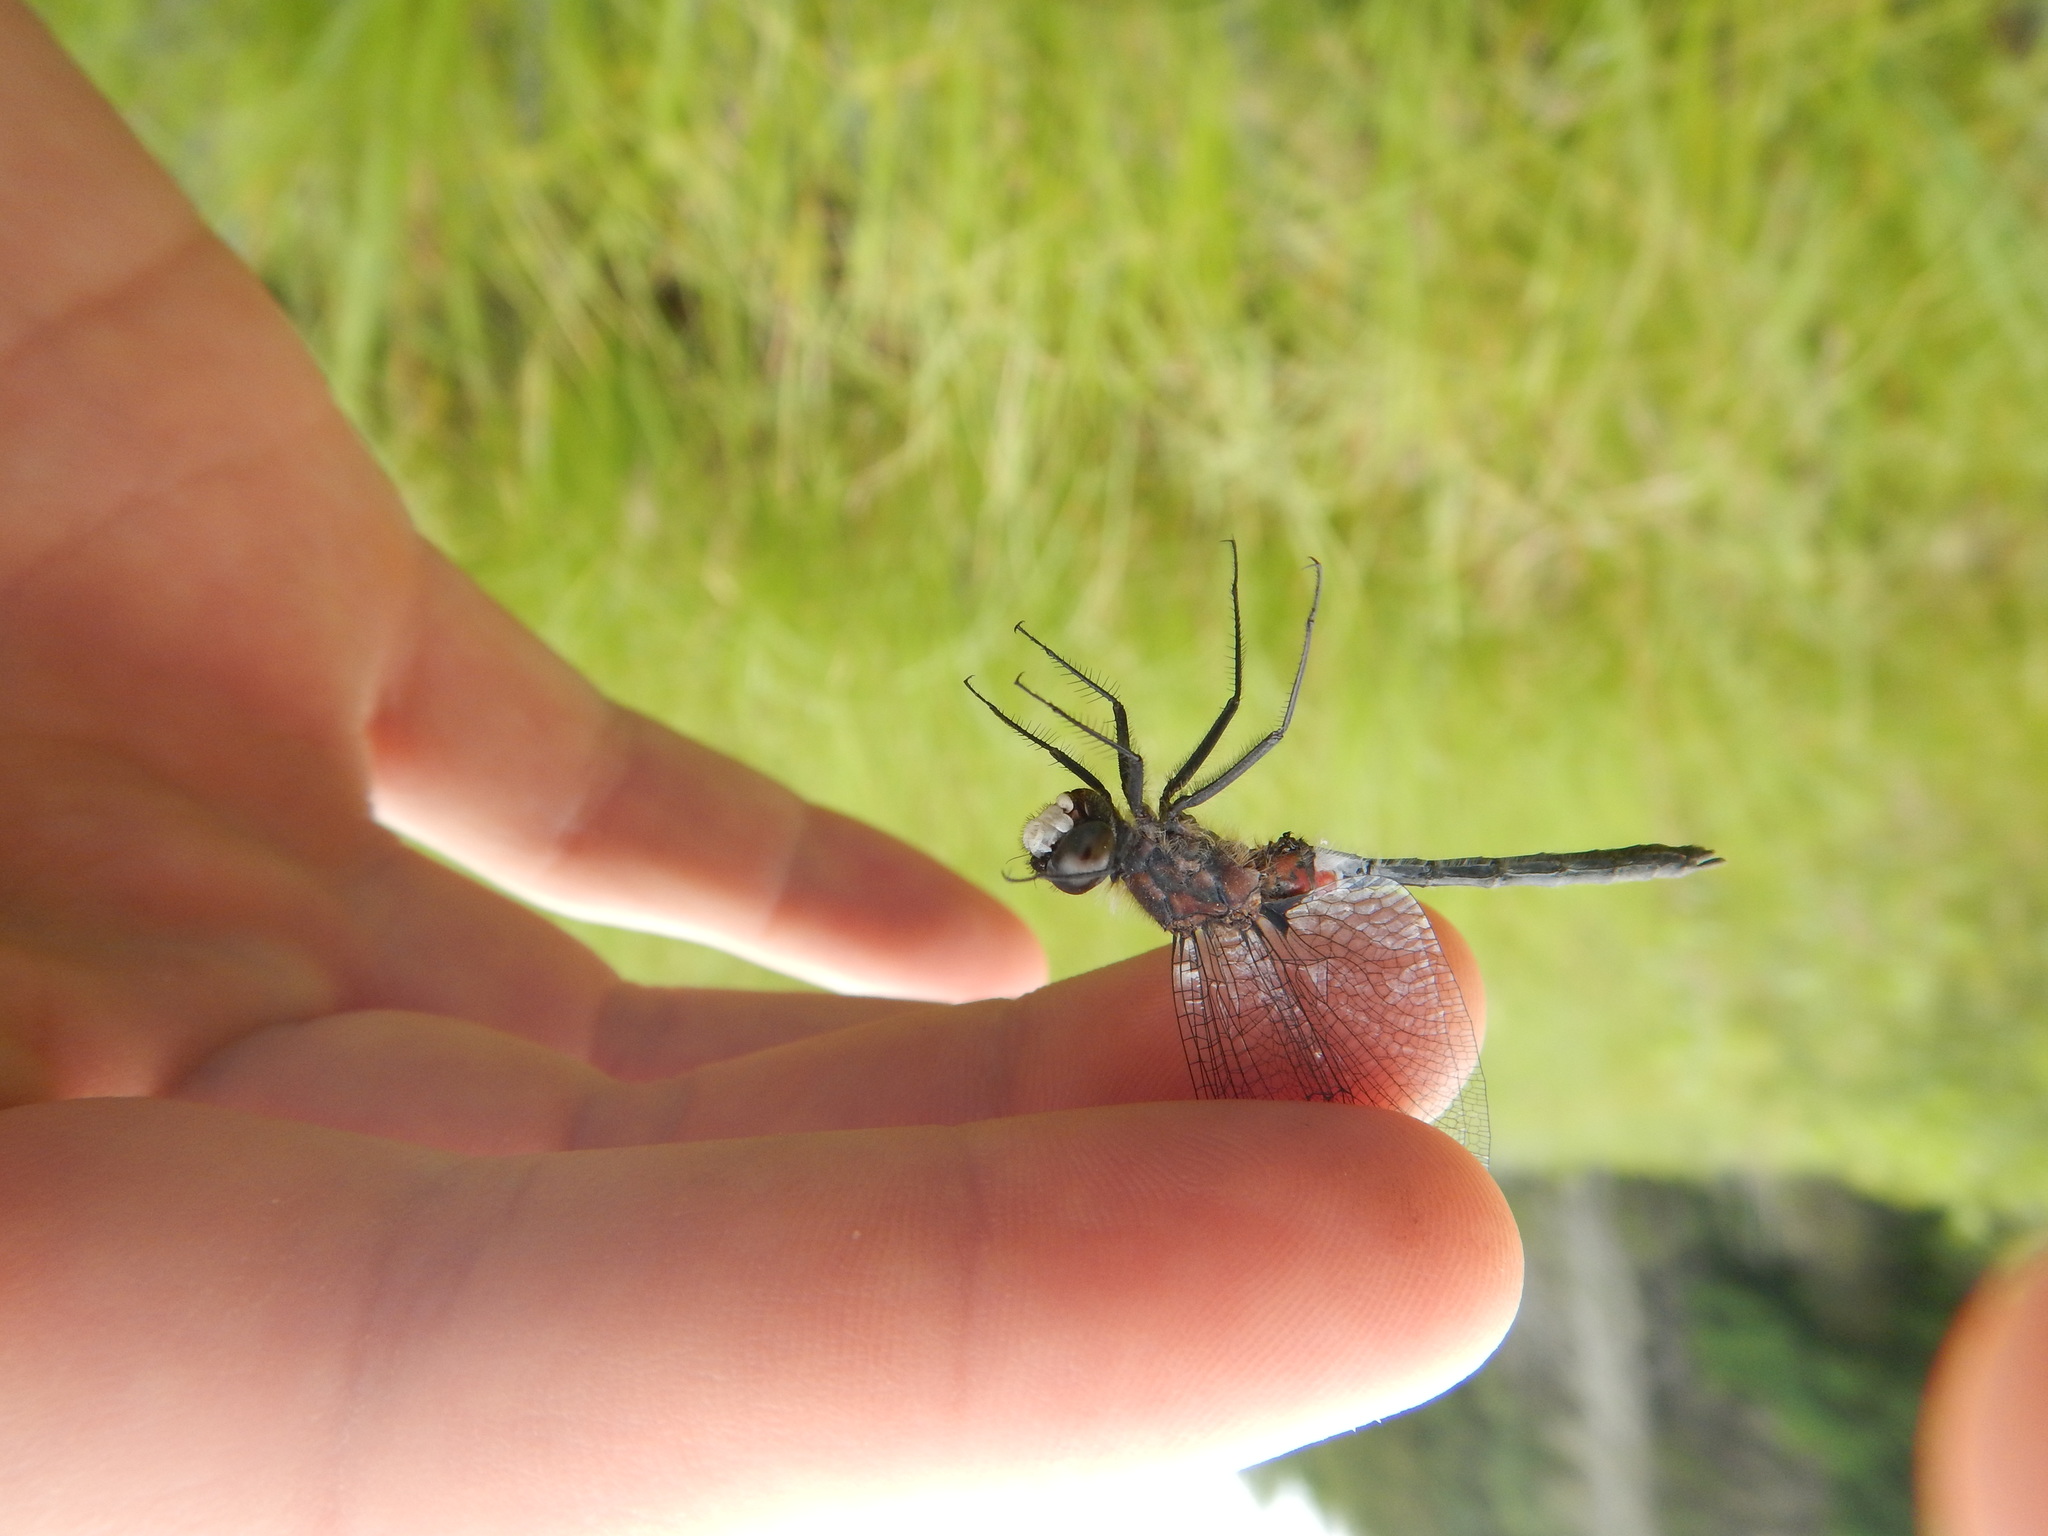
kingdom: Animalia
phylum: Arthropoda
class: Insecta
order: Odonata
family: Libellulidae
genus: Leucorrhinia
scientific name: Leucorrhinia proxima
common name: Belted whiteface
